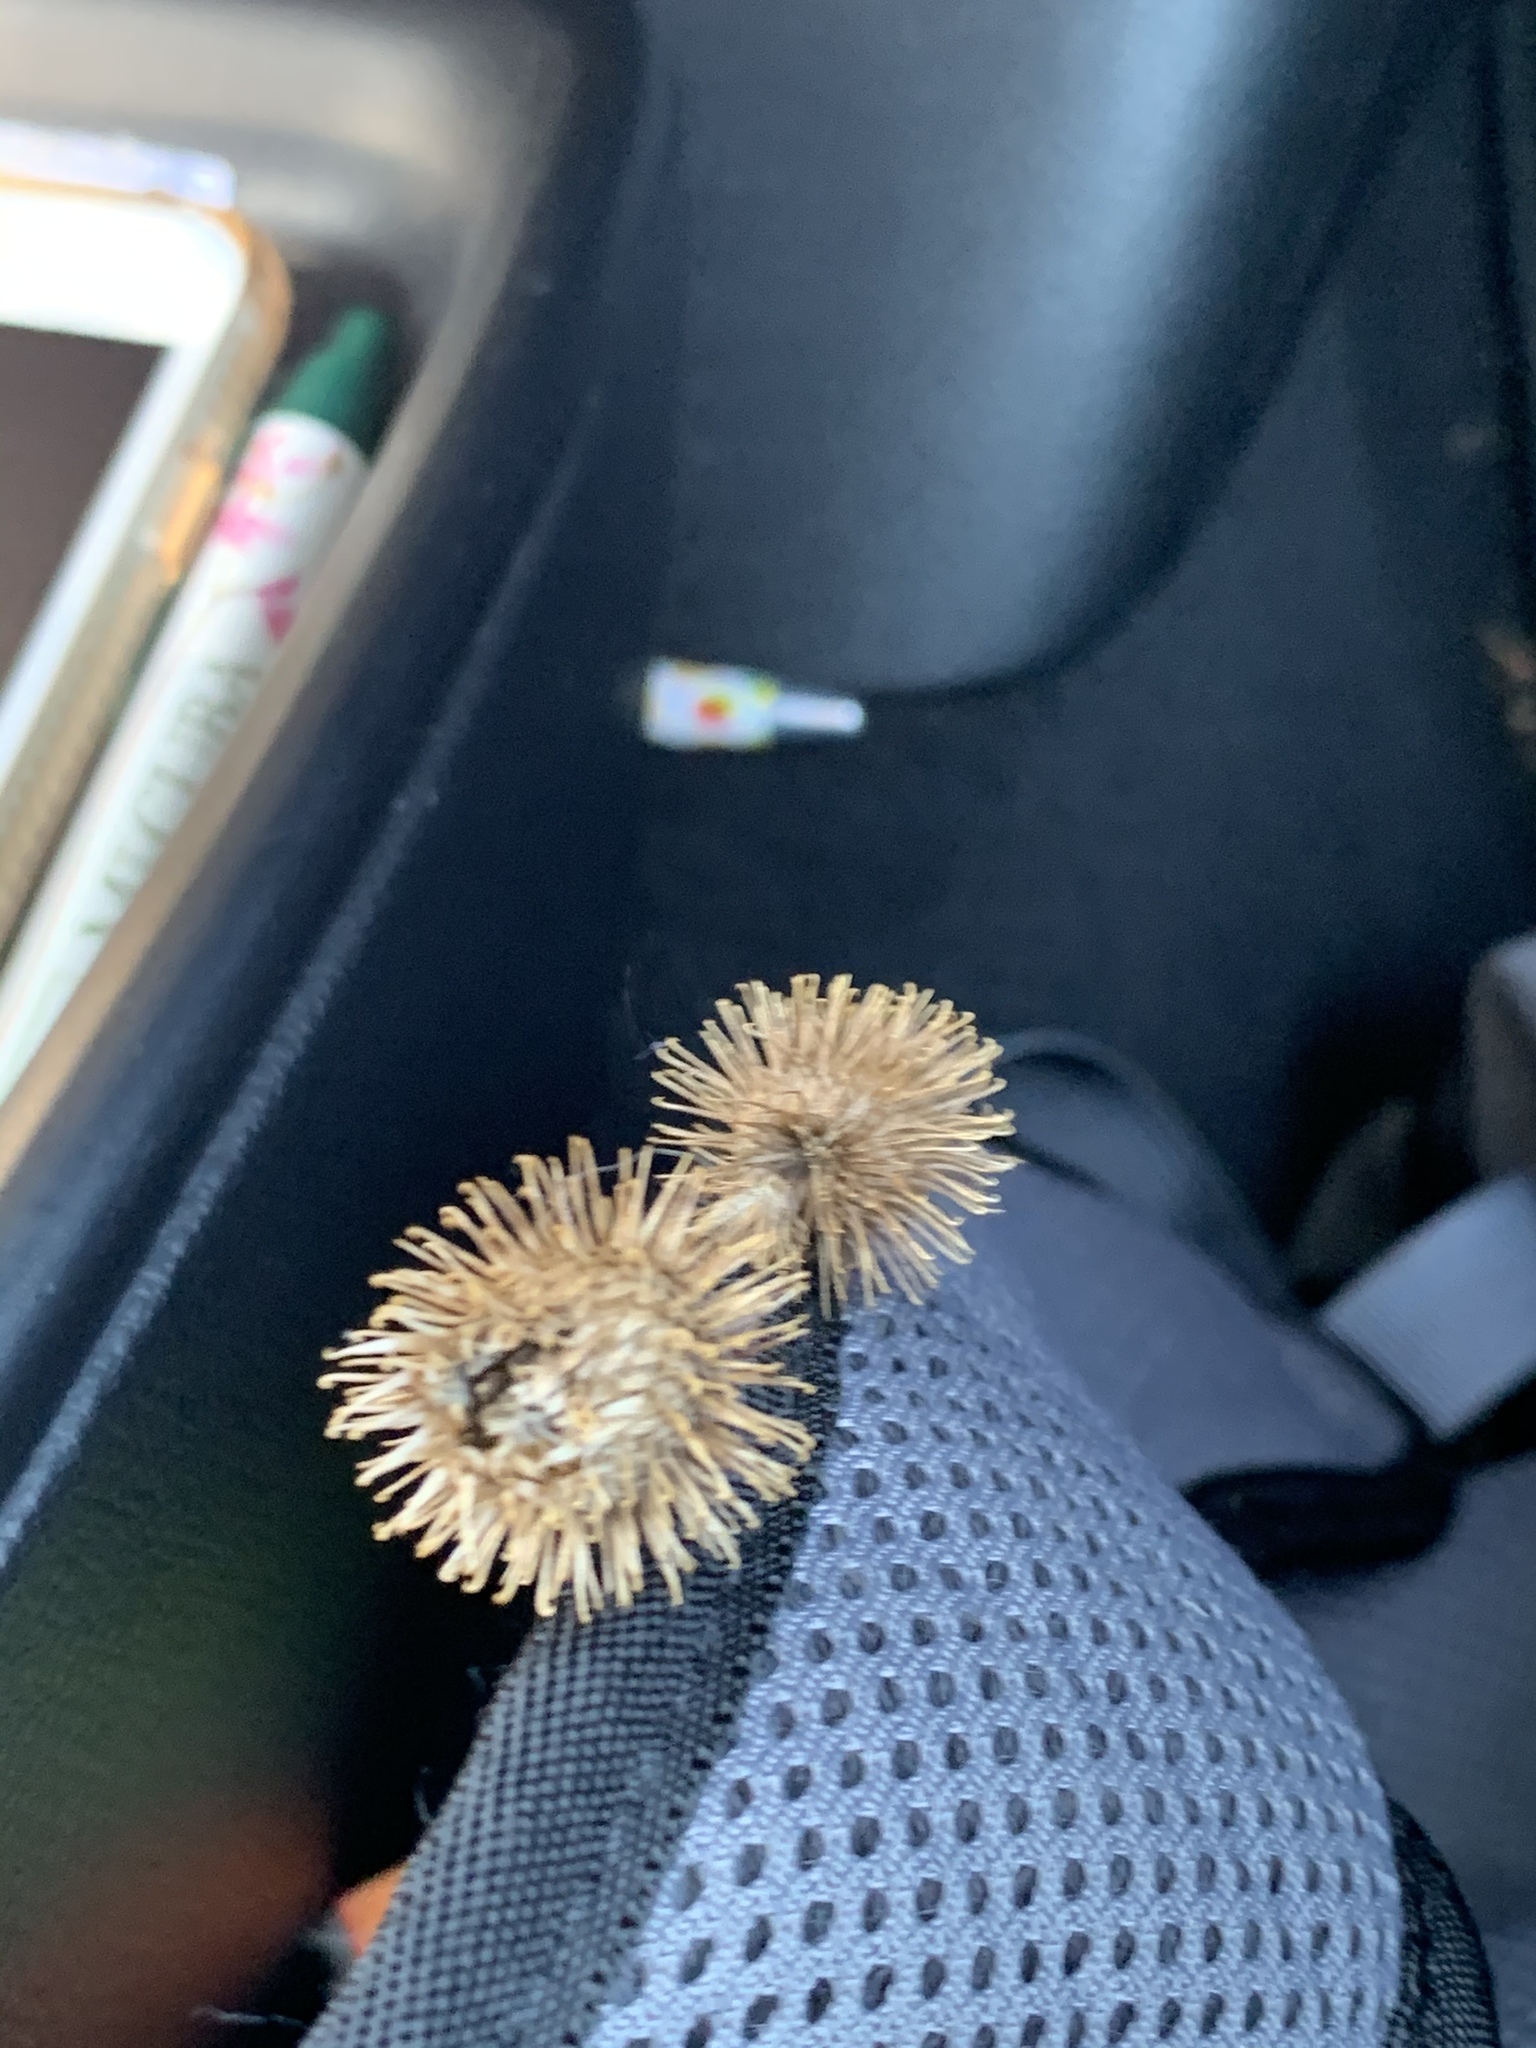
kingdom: Plantae
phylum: Tracheophyta
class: Magnoliopsida
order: Asterales
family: Asteraceae
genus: Arctium
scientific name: Arctium minus
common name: Lesser burdock
